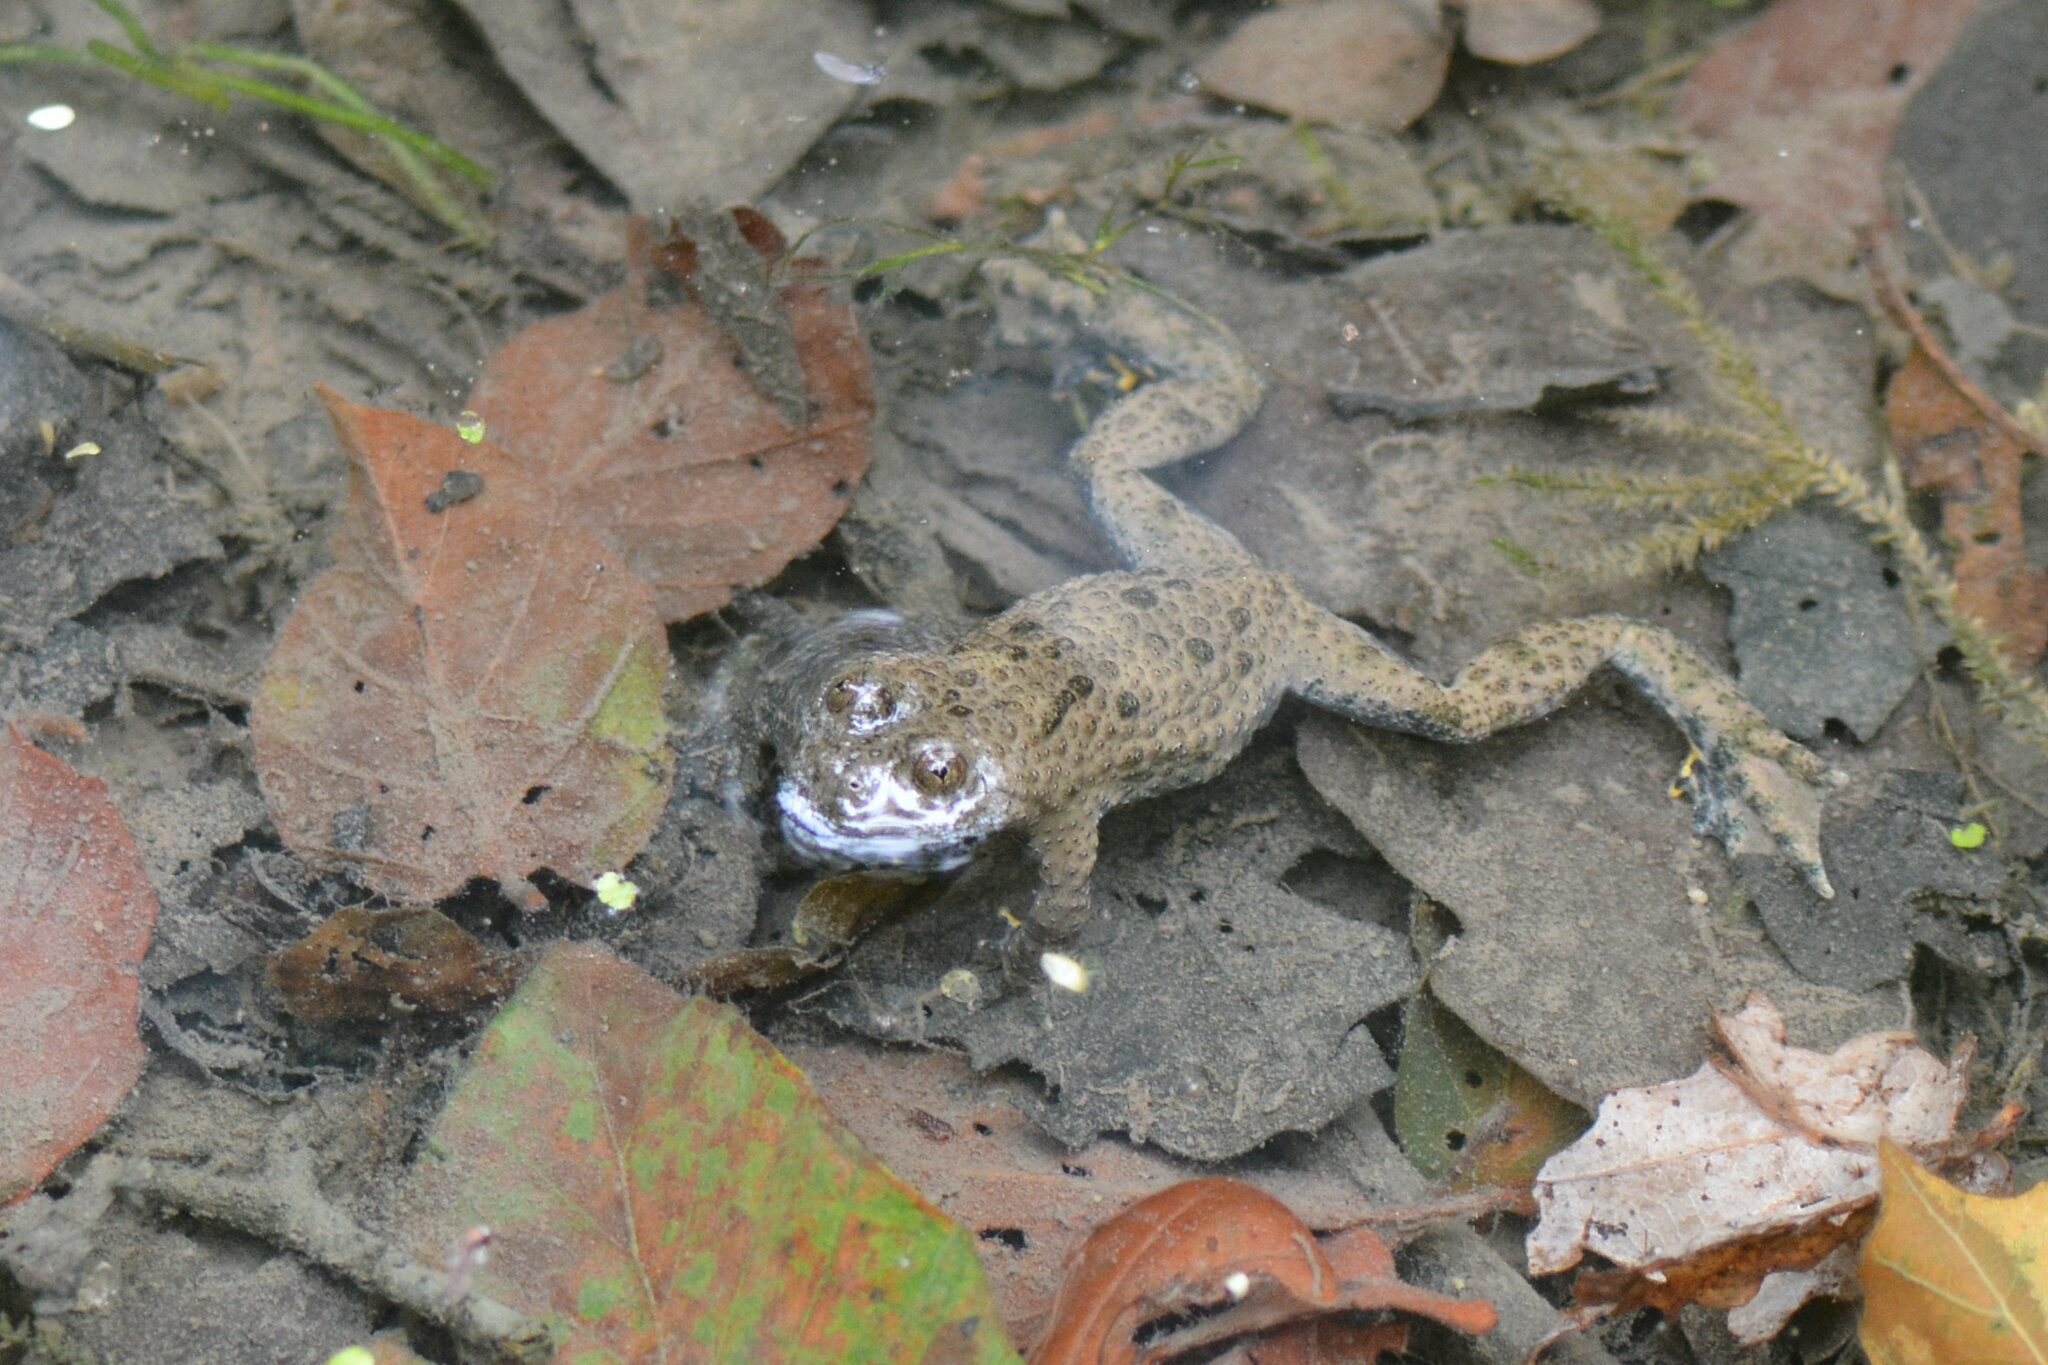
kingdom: Animalia
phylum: Chordata
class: Amphibia
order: Anura
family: Bombinatoridae
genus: Bombina
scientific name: Bombina variegata
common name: Yellow-bellied toad
